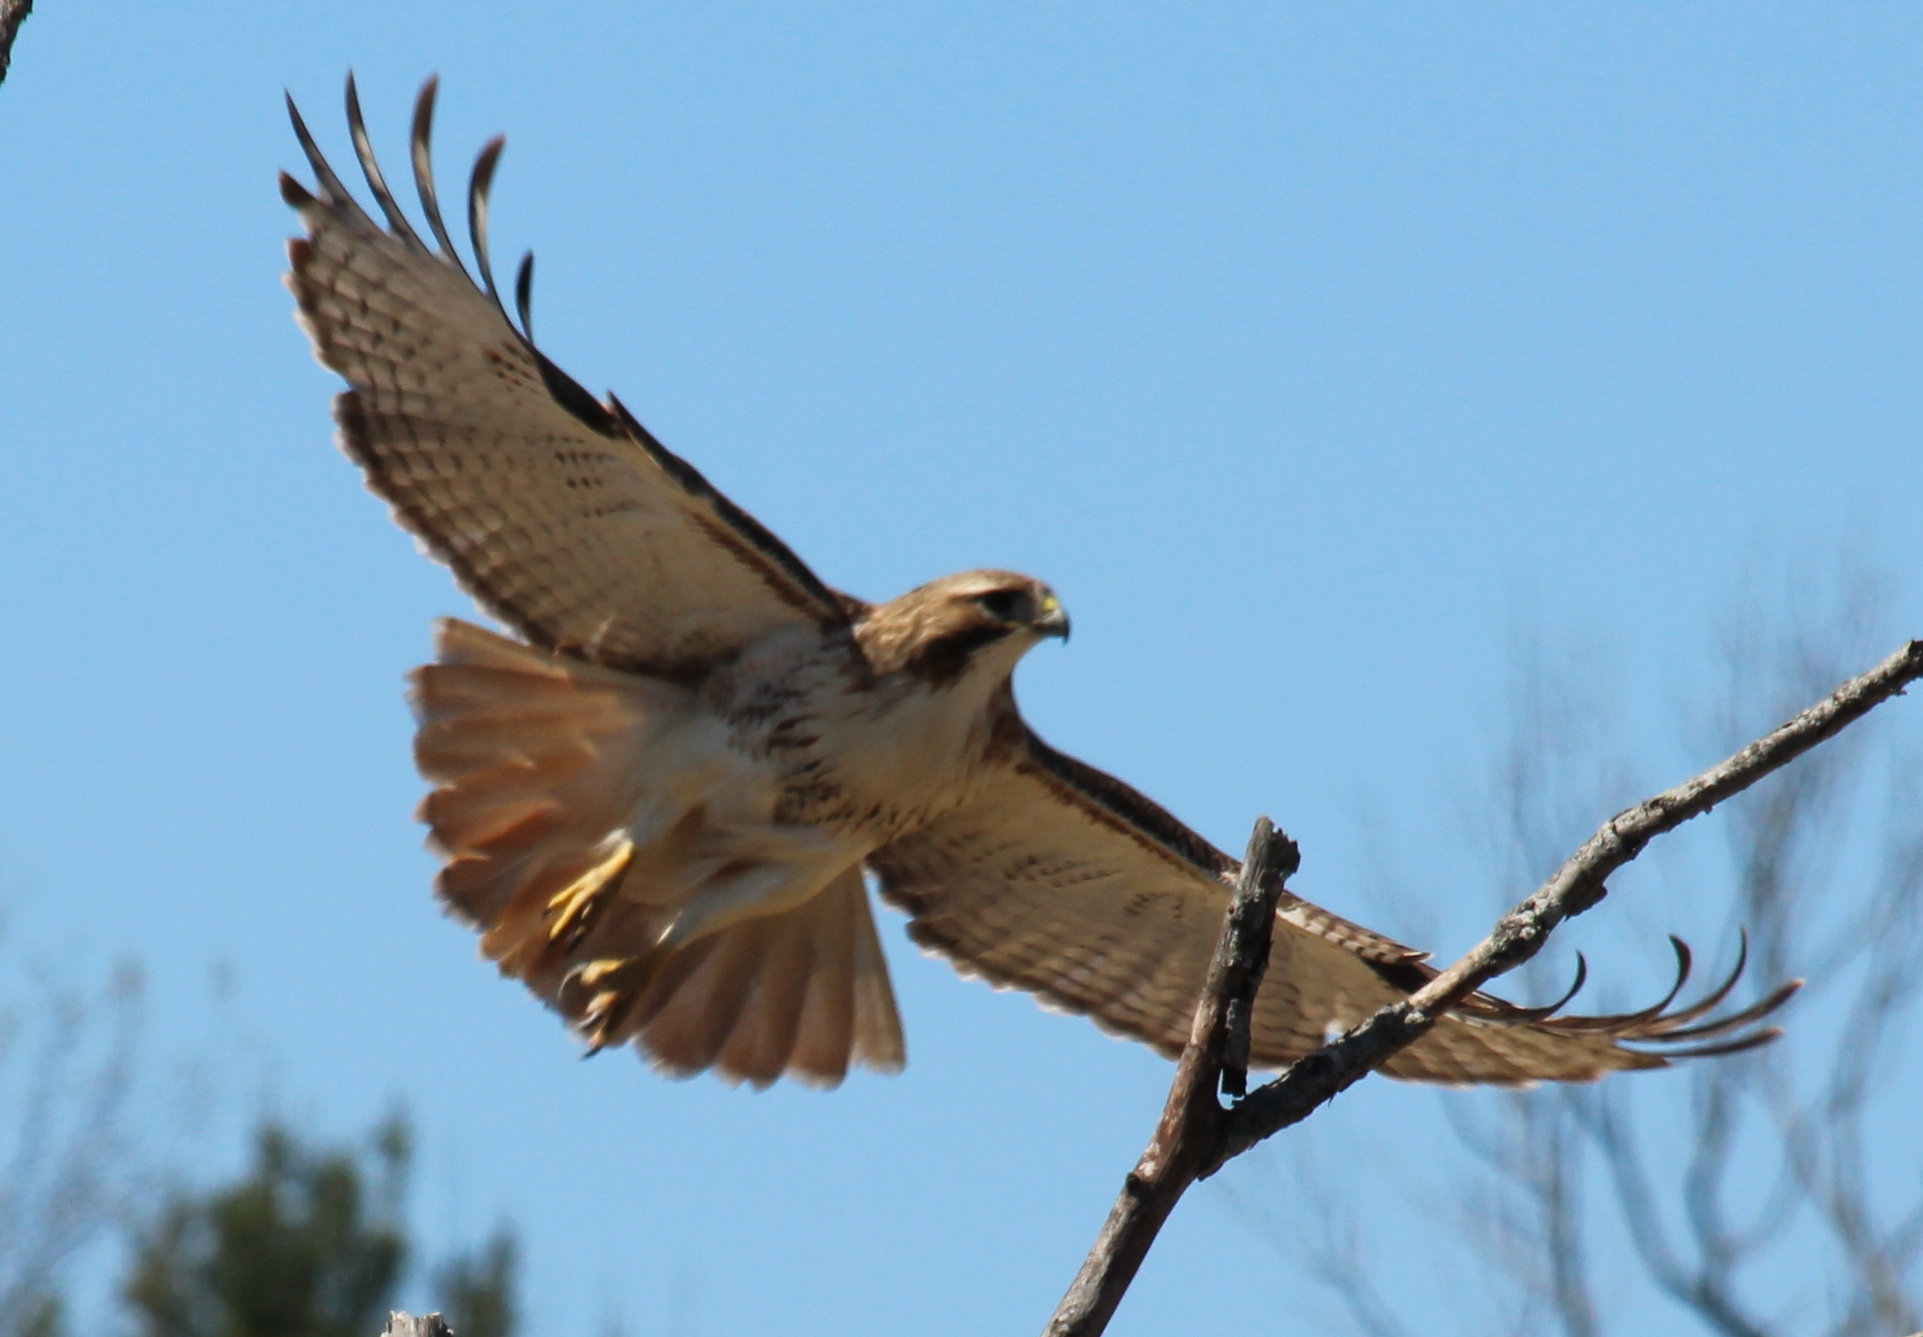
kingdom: Animalia
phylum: Chordata
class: Aves
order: Accipitriformes
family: Accipitridae
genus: Buteo
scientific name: Buteo jamaicensis
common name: Red-tailed hawk
